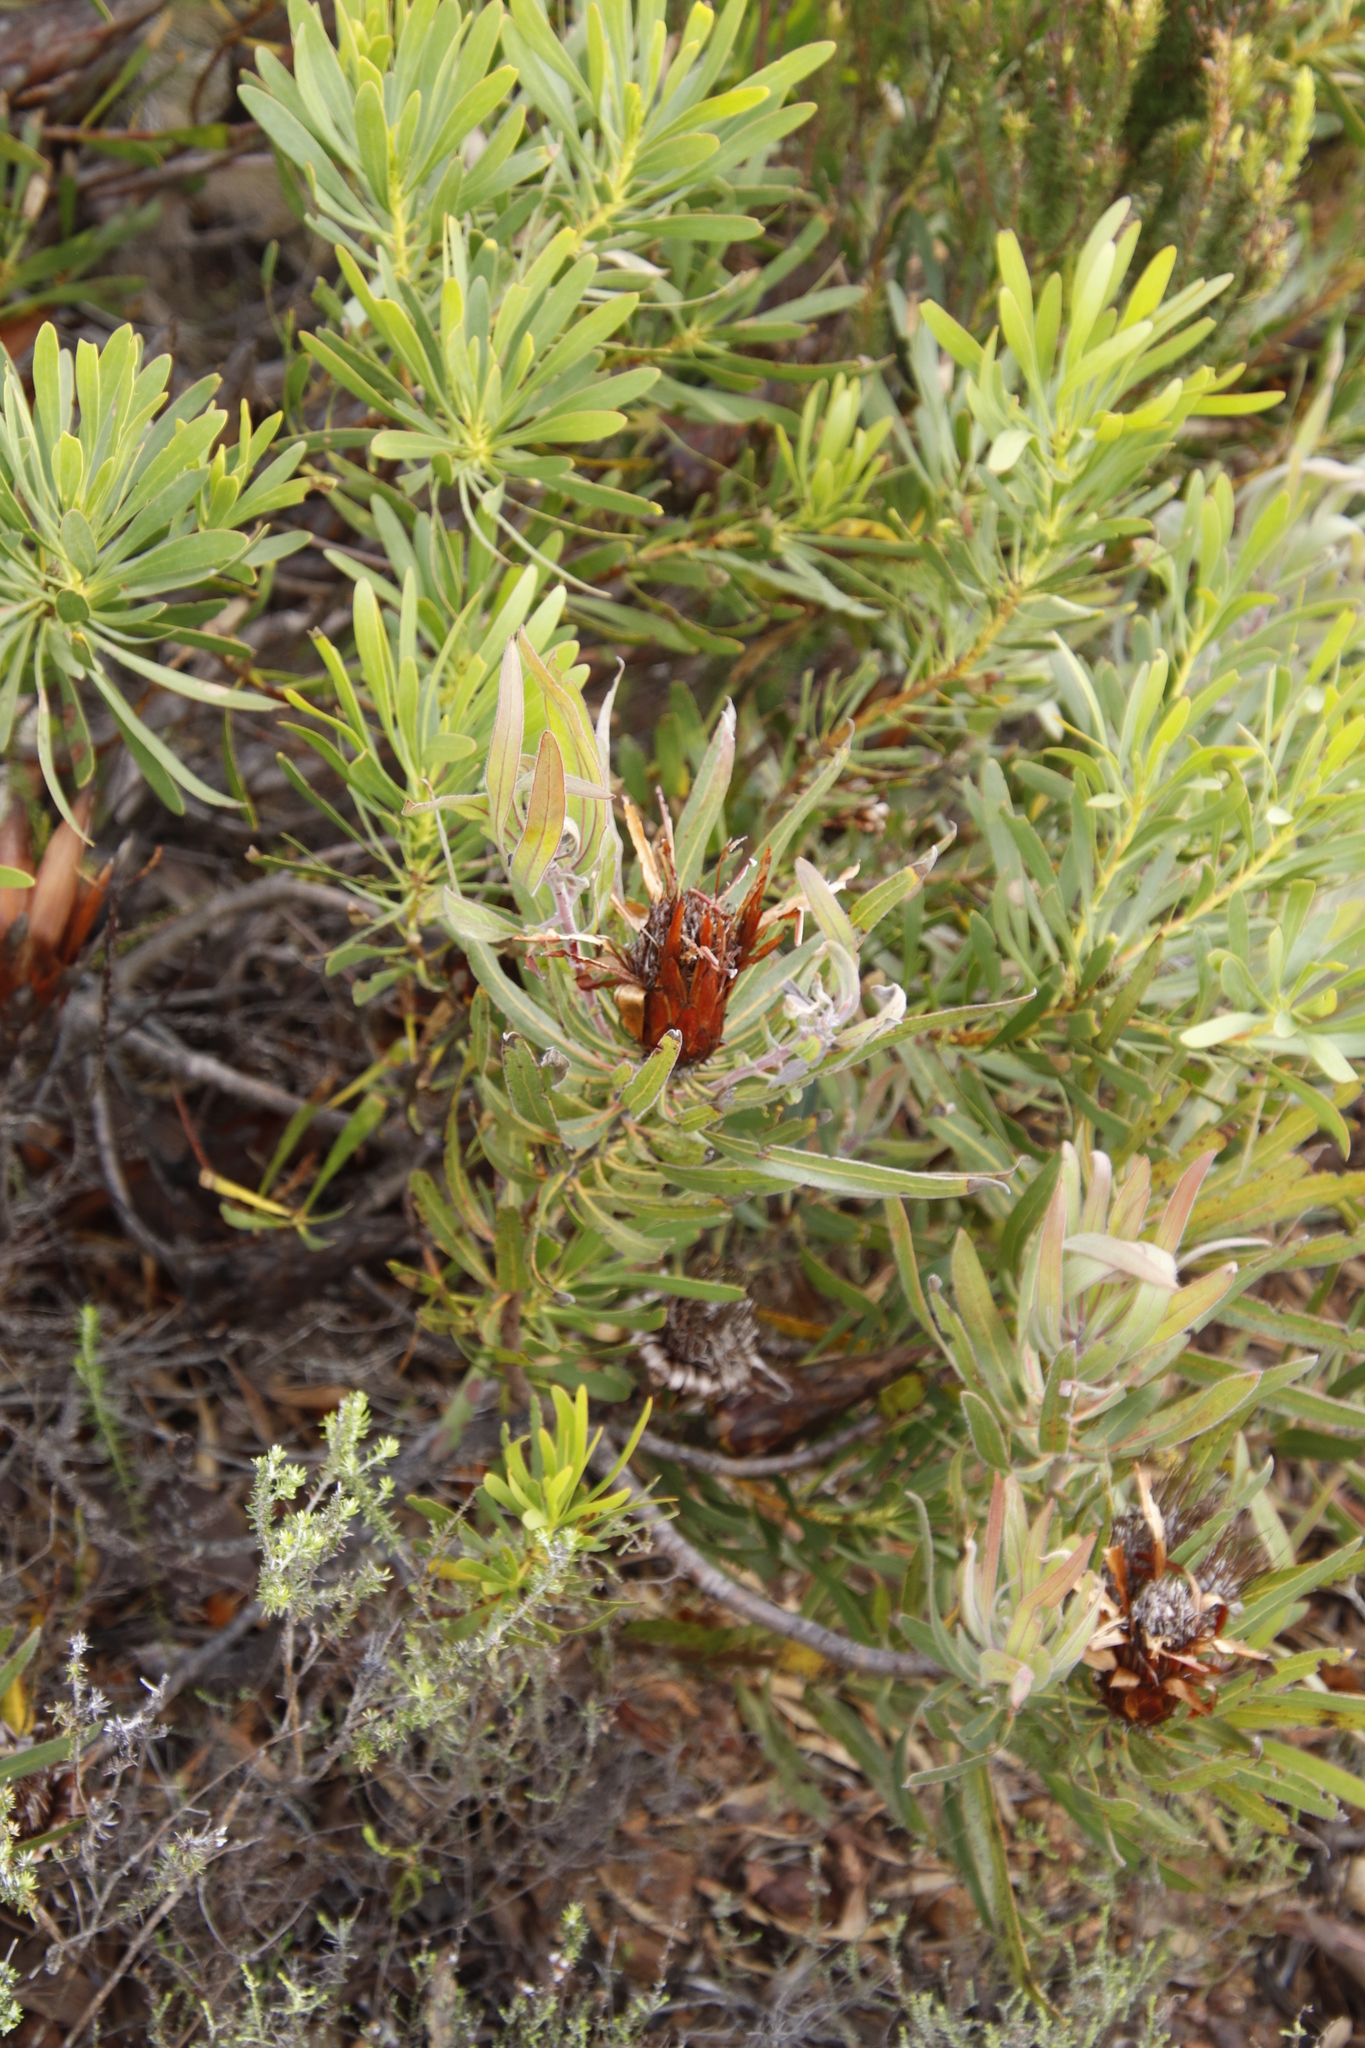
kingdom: Plantae
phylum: Tracheophyta
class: Magnoliopsida
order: Proteales
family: Proteaceae
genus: Protea
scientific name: Protea
